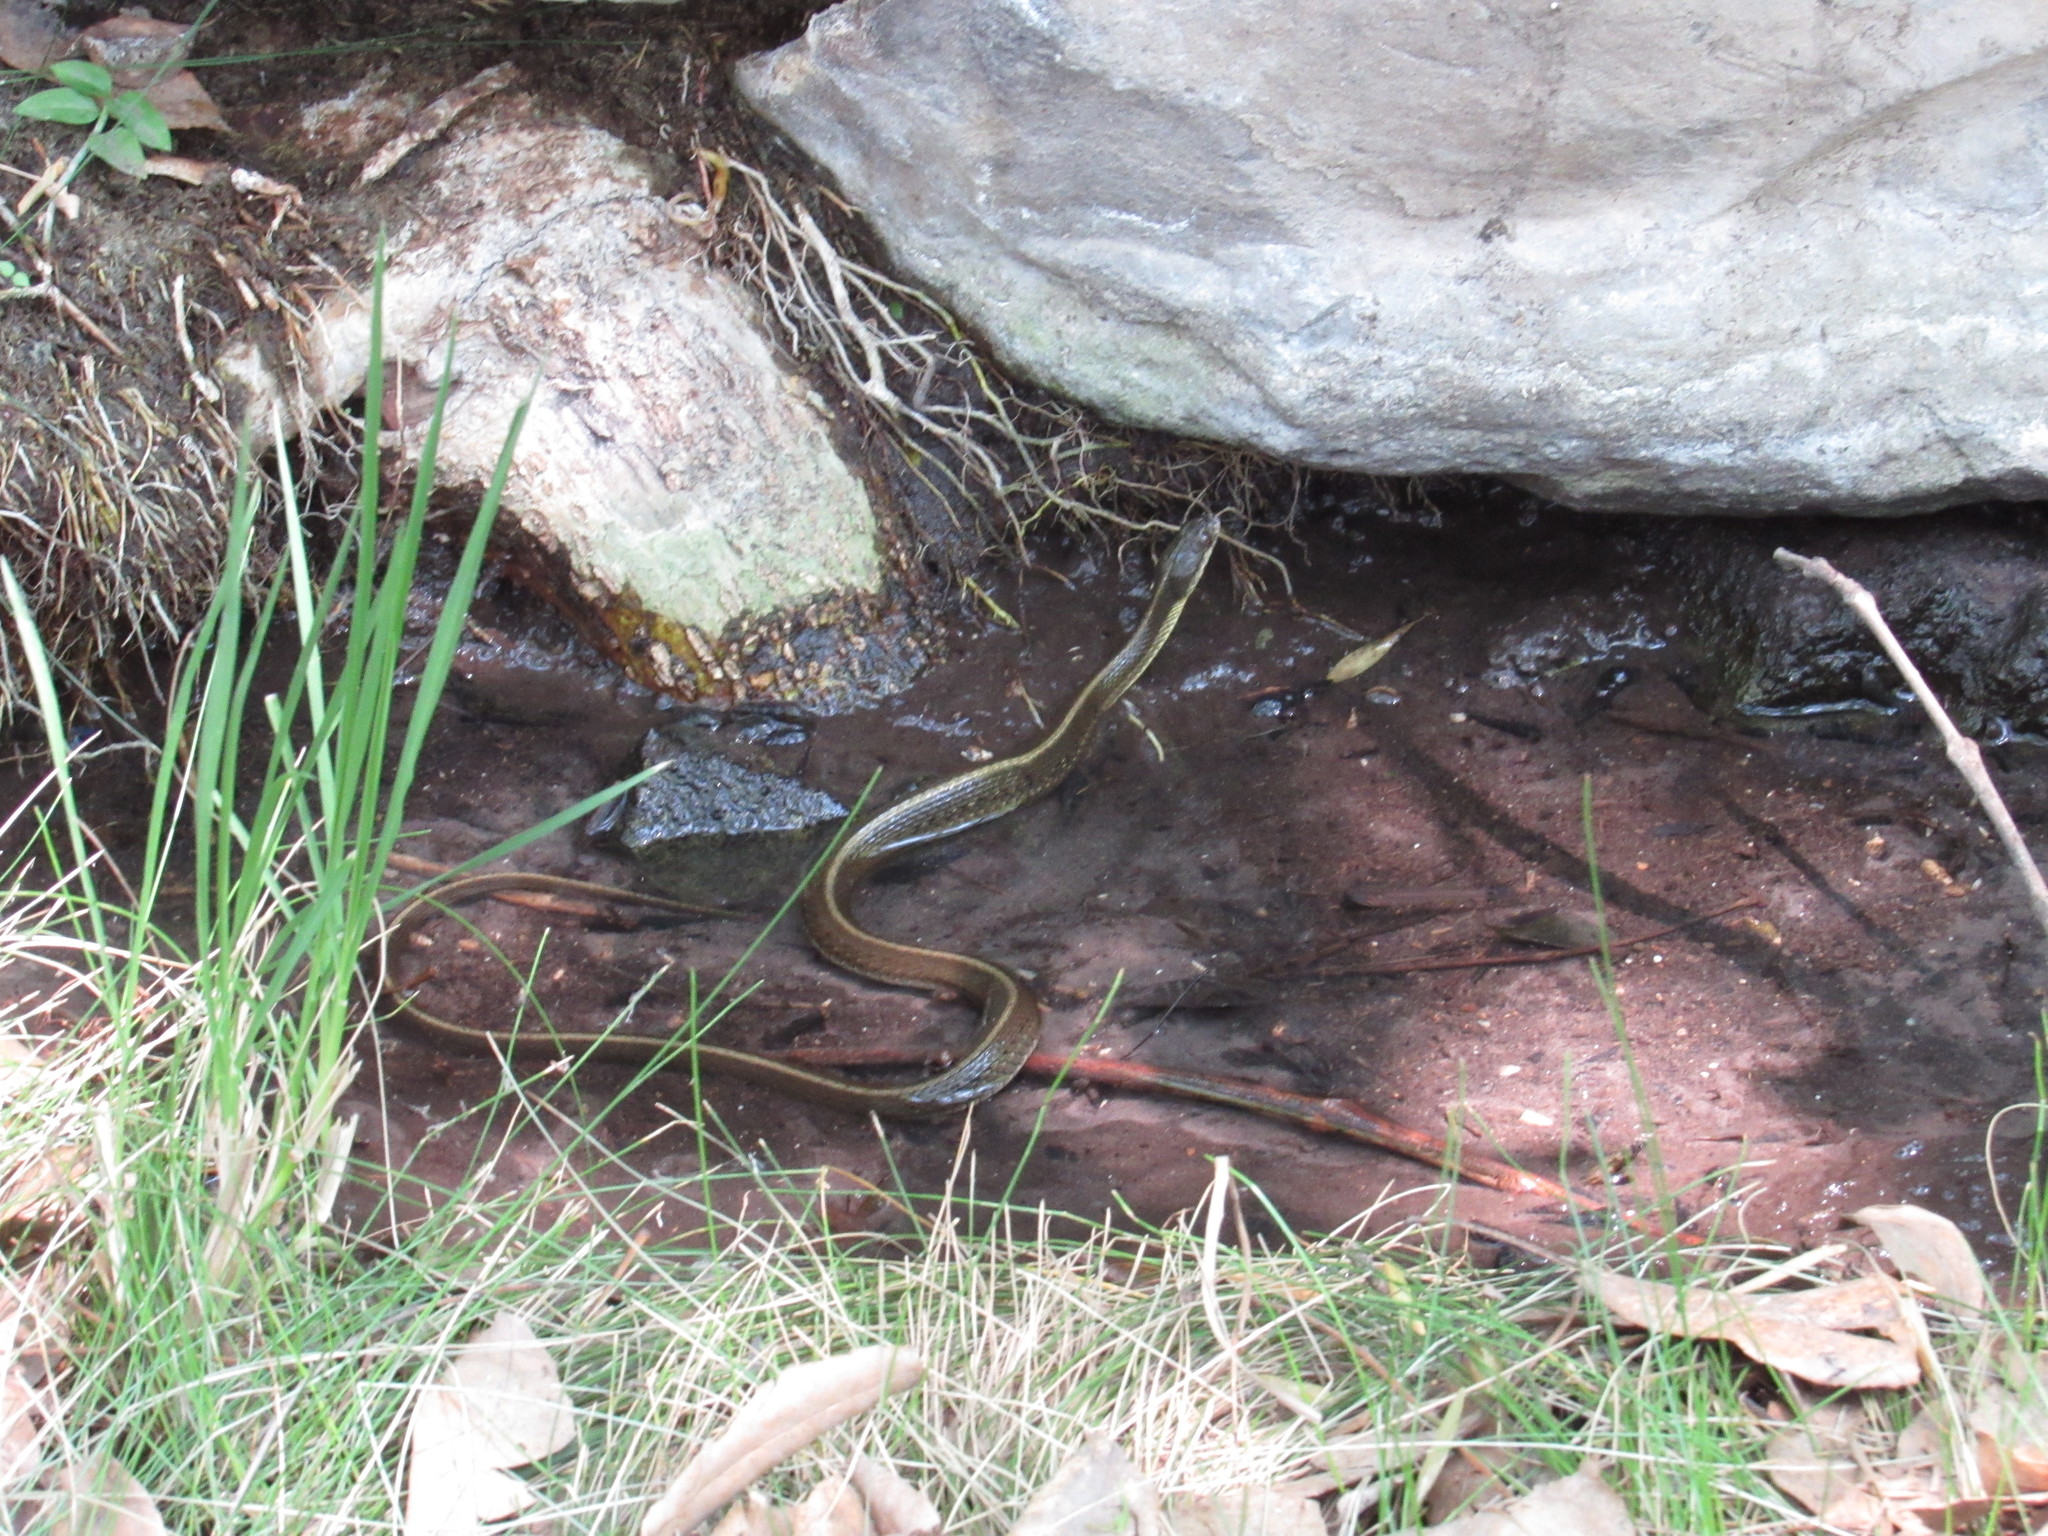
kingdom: Animalia
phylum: Chordata
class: Squamata
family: Colubridae
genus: Thamnophis
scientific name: Thamnophis melanogaster
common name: Blackbelly garter snake
